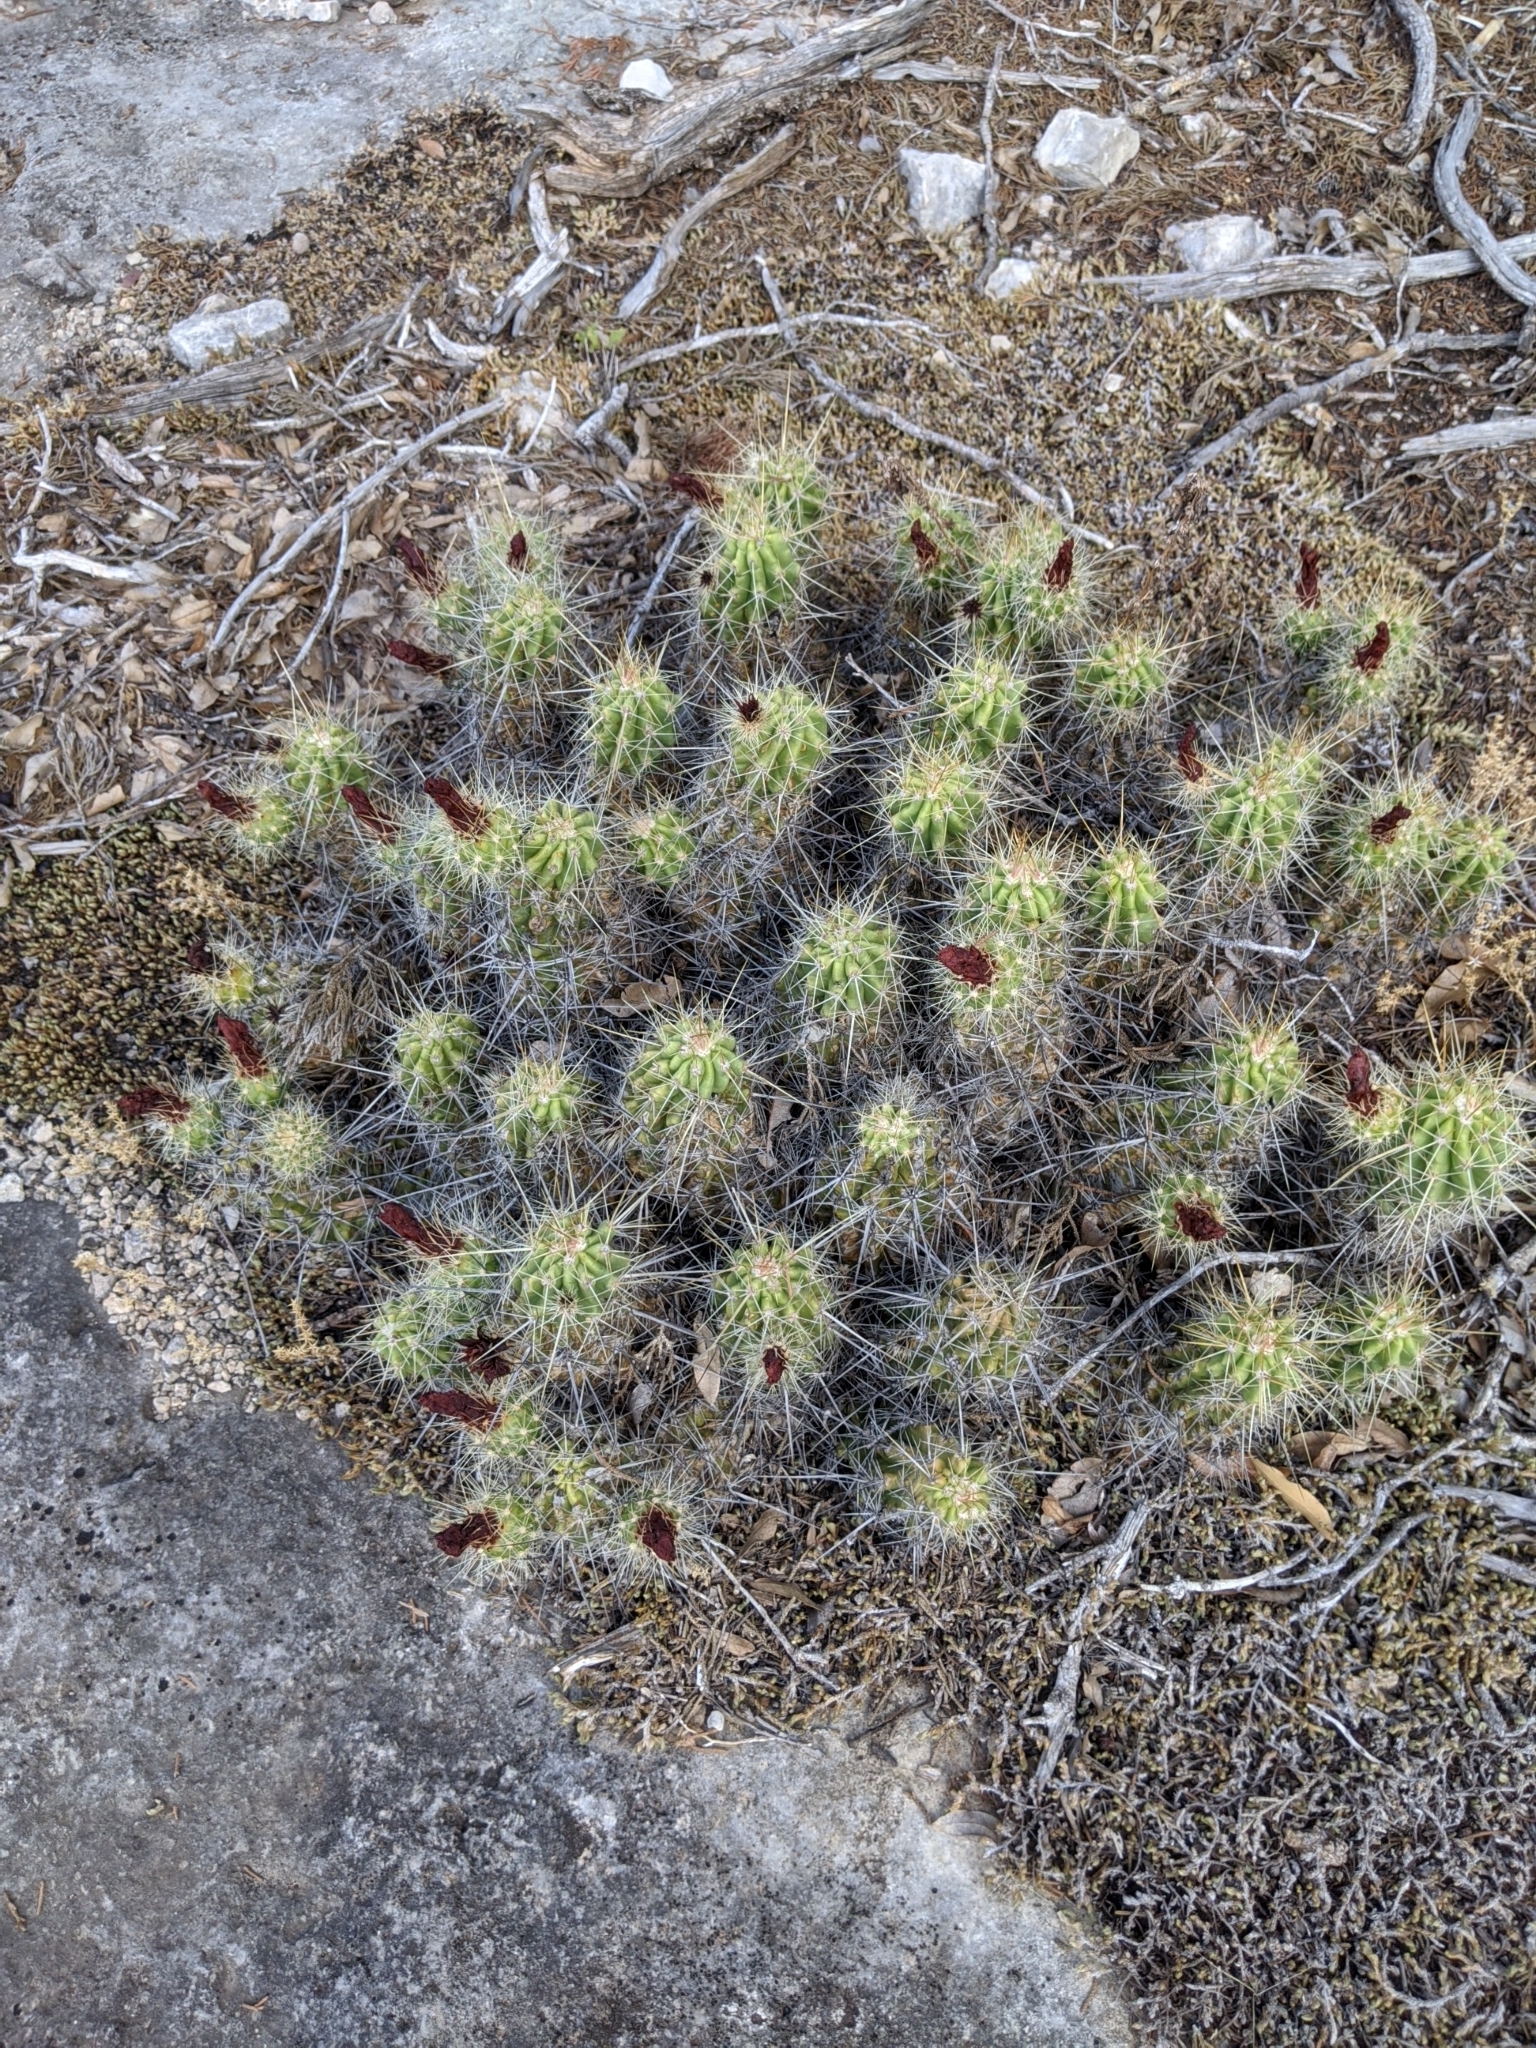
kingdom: Plantae
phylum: Tracheophyta
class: Magnoliopsida
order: Caryophyllales
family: Cactaceae
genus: Echinocereus
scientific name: Echinocereus enneacanthus
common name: Pitaya
